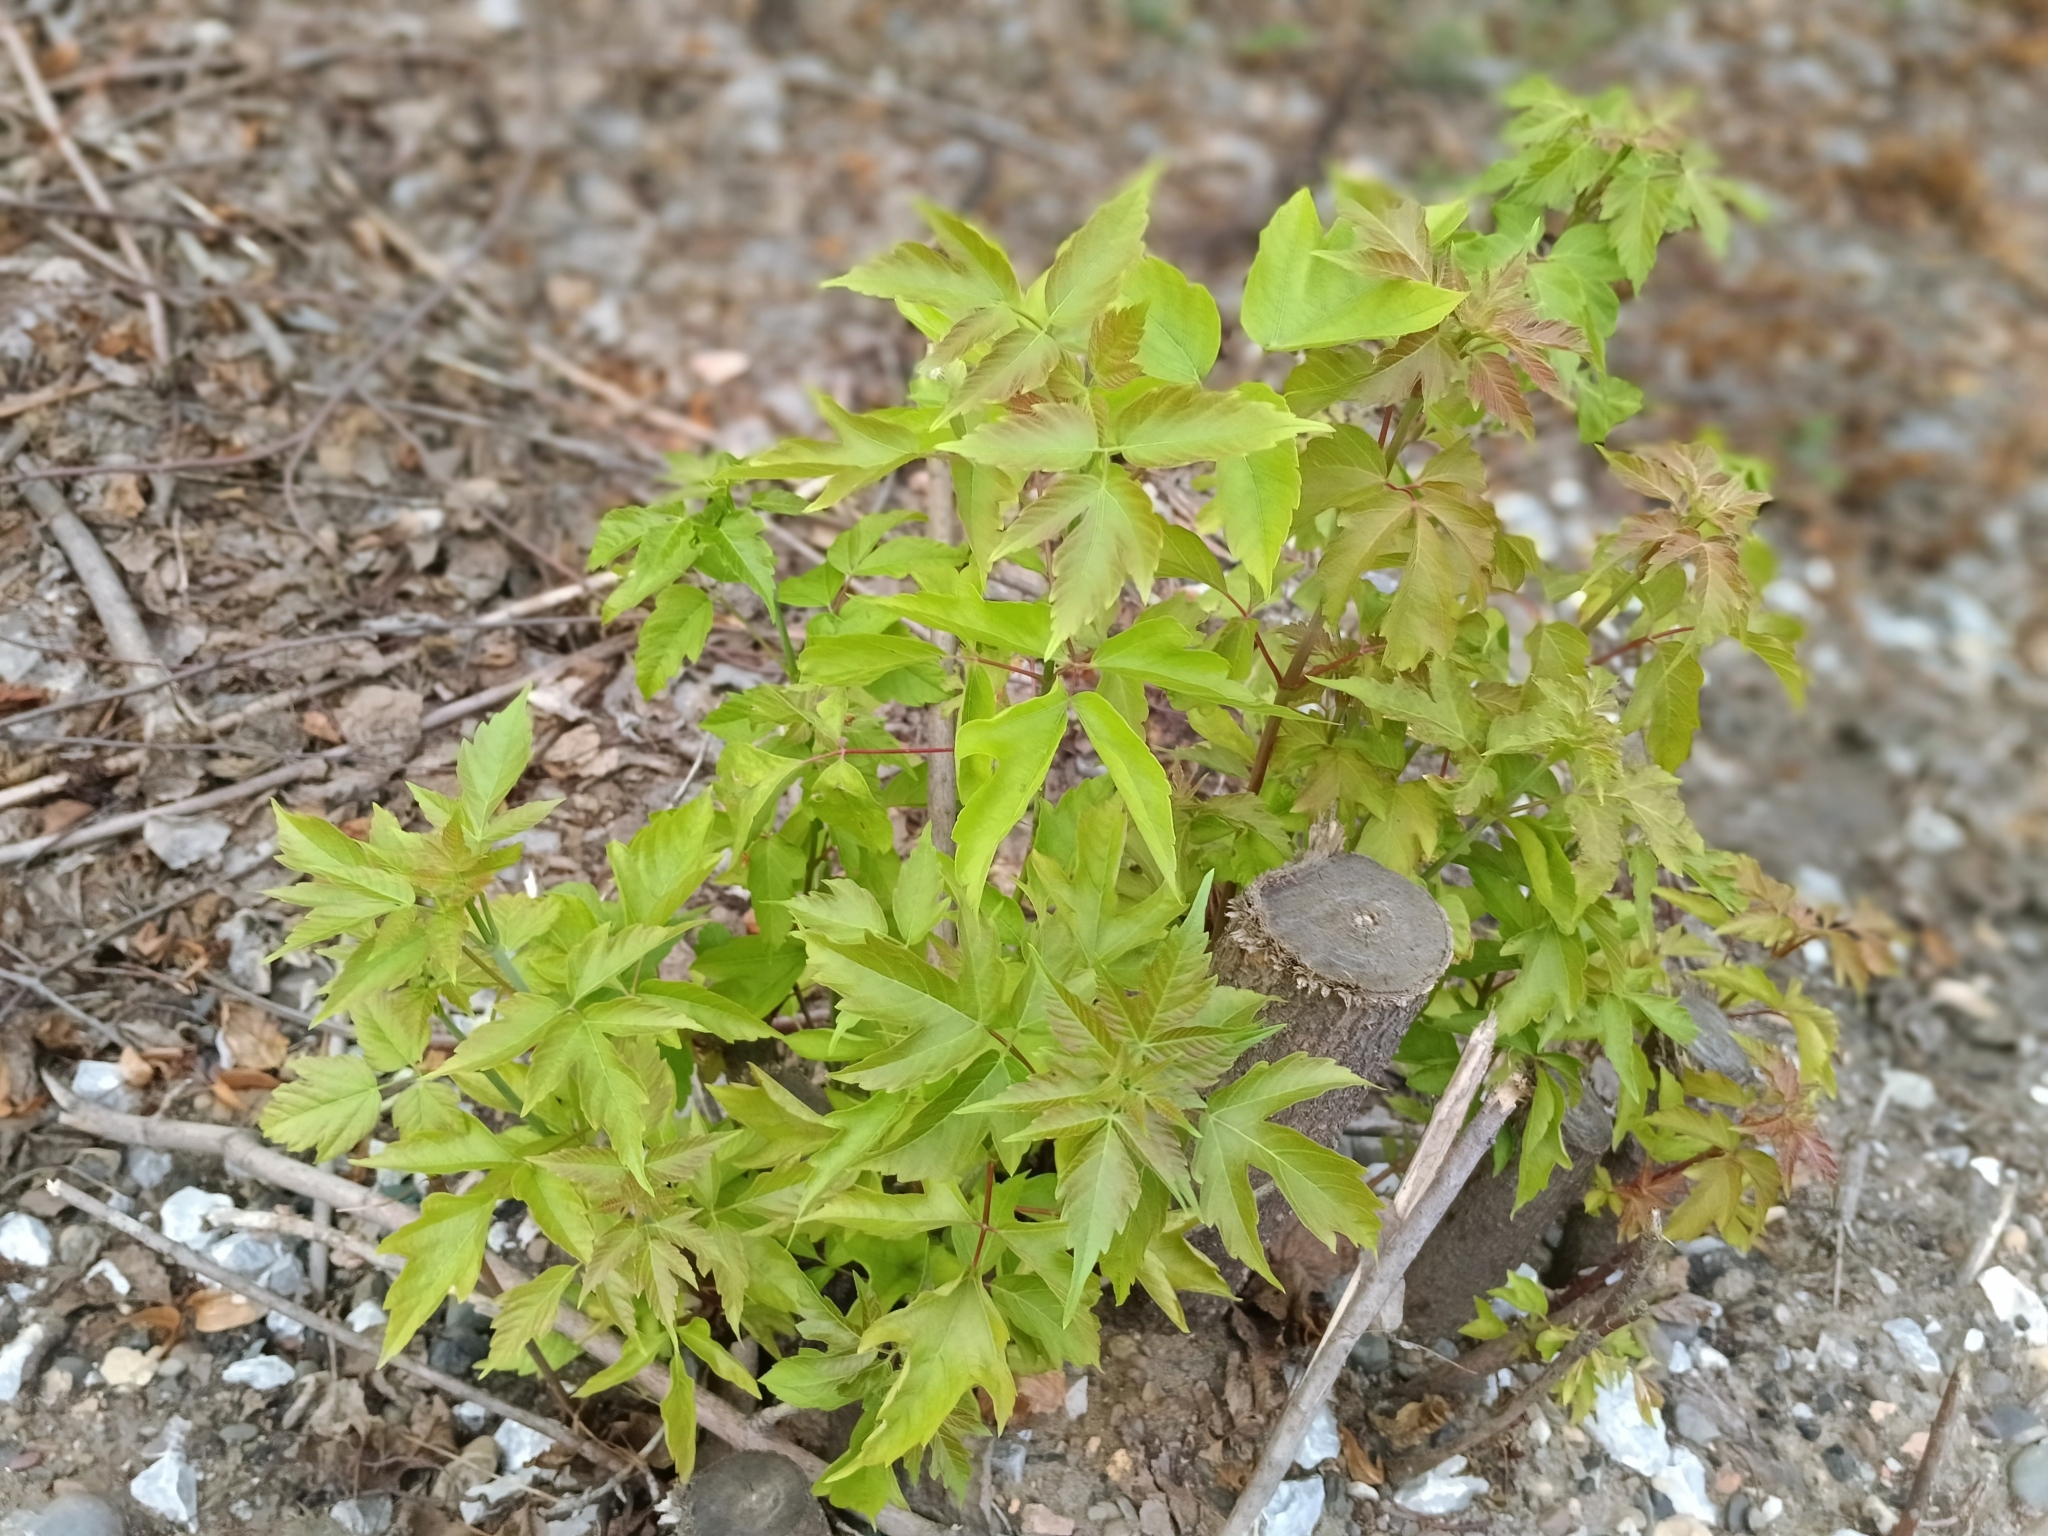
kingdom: Plantae
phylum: Tracheophyta
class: Magnoliopsida
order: Sapindales
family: Sapindaceae
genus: Acer
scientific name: Acer negundo
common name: Ashleaf maple
